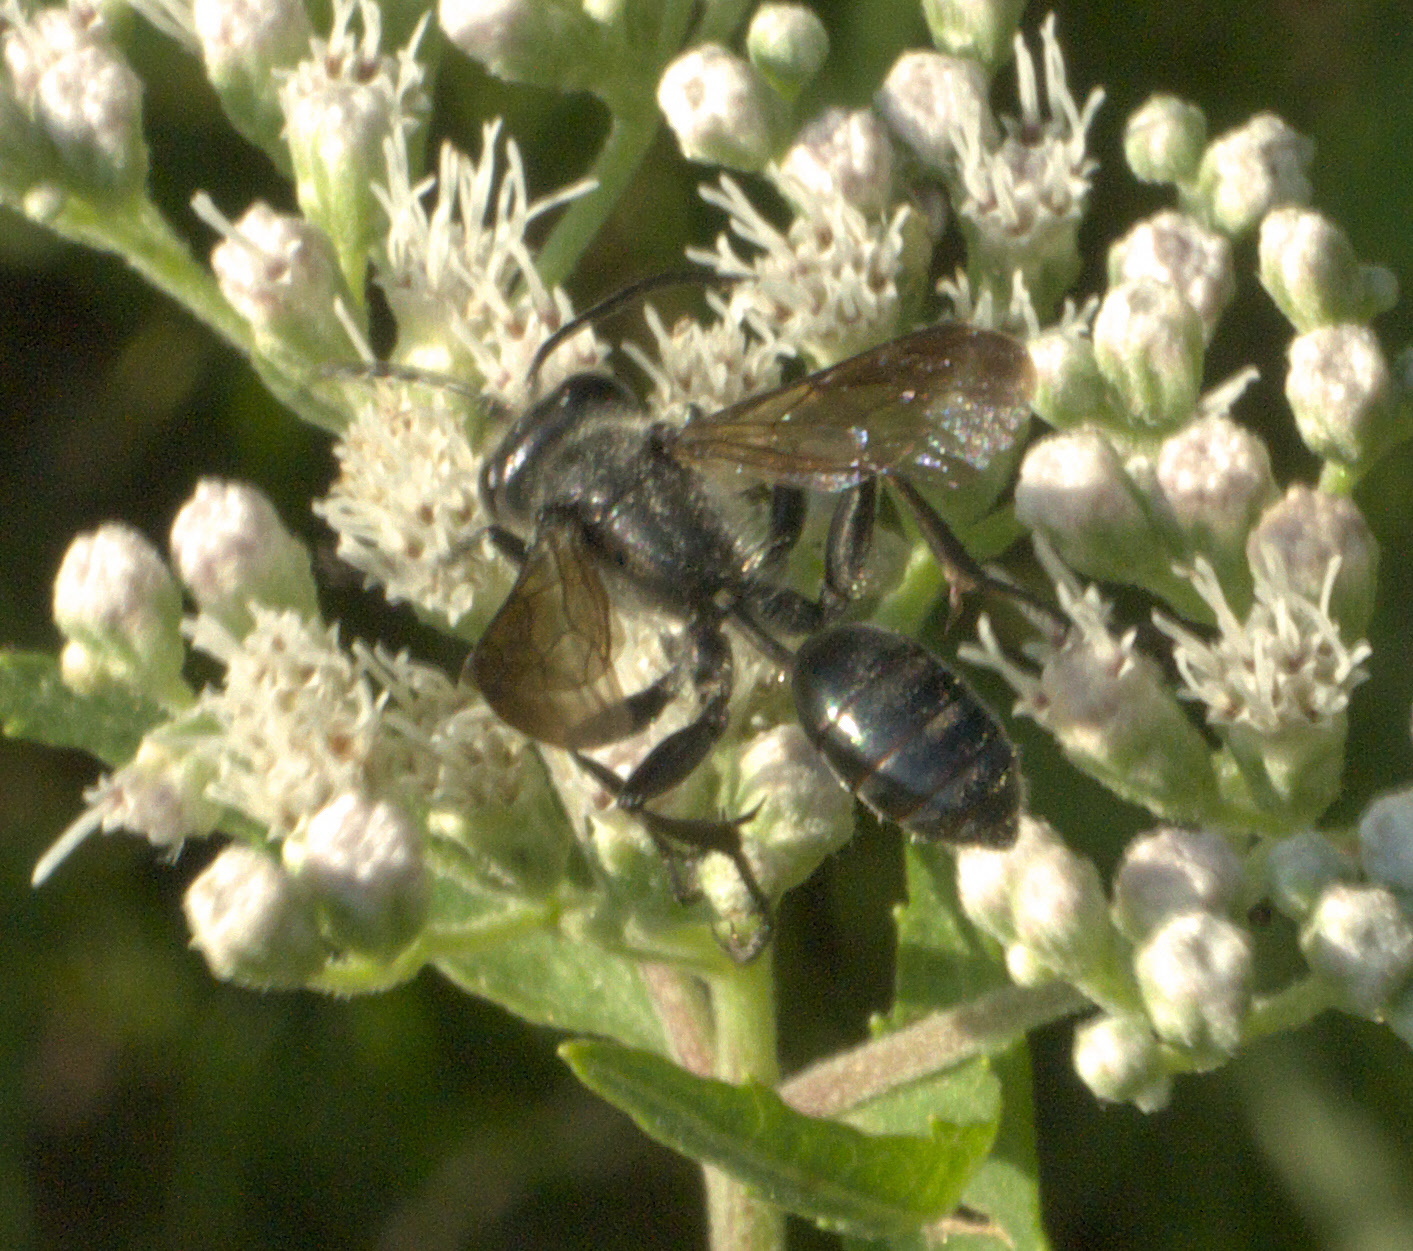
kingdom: Animalia
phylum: Arthropoda
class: Insecta
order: Hymenoptera
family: Sphecidae
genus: Isodontia
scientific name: Isodontia mexicana
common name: Mud dauber
